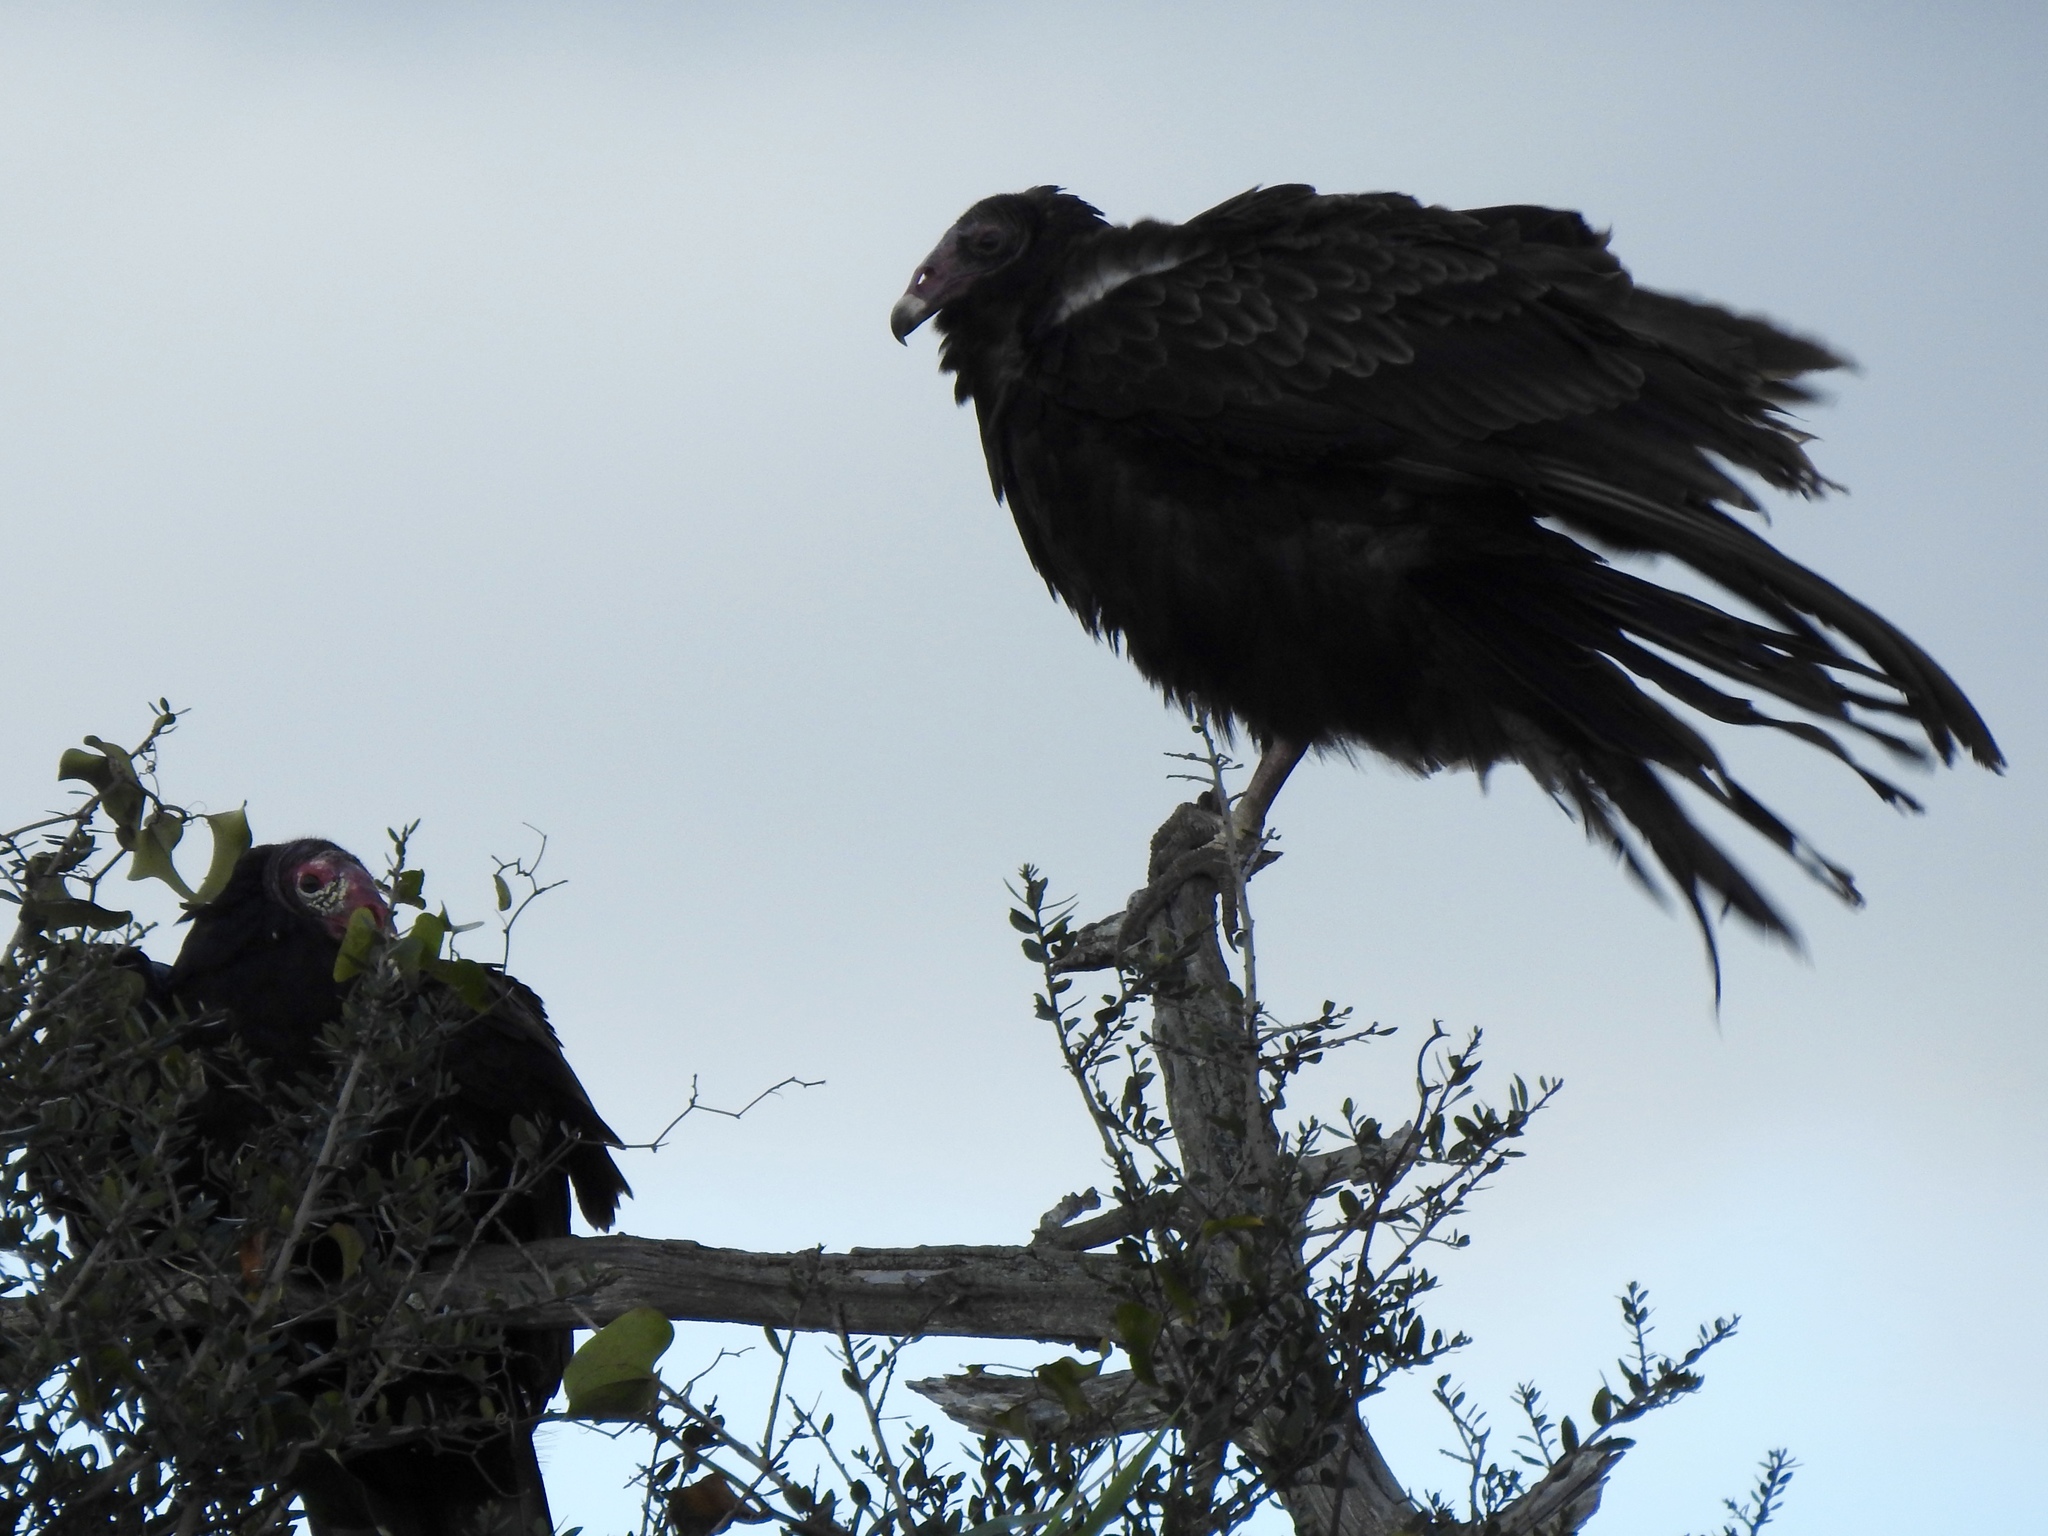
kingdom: Animalia
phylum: Chordata
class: Aves
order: Accipitriformes
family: Cathartidae
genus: Cathartes
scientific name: Cathartes aura
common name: Turkey vulture
